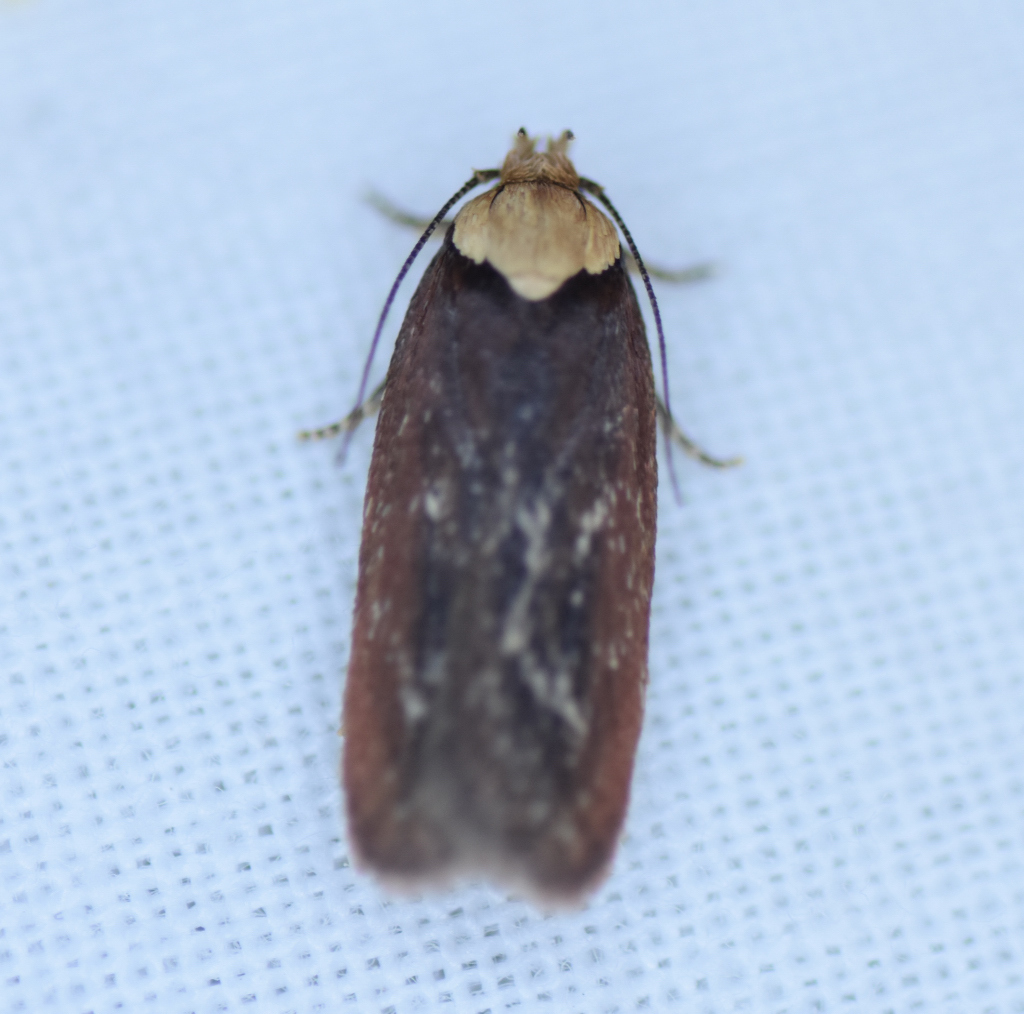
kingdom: Animalia
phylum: Arthropoda
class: Insecta
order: Lepidoptera
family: Depressariidae
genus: Depressaria
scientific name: Depressaria depressana
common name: Lost flat-body
